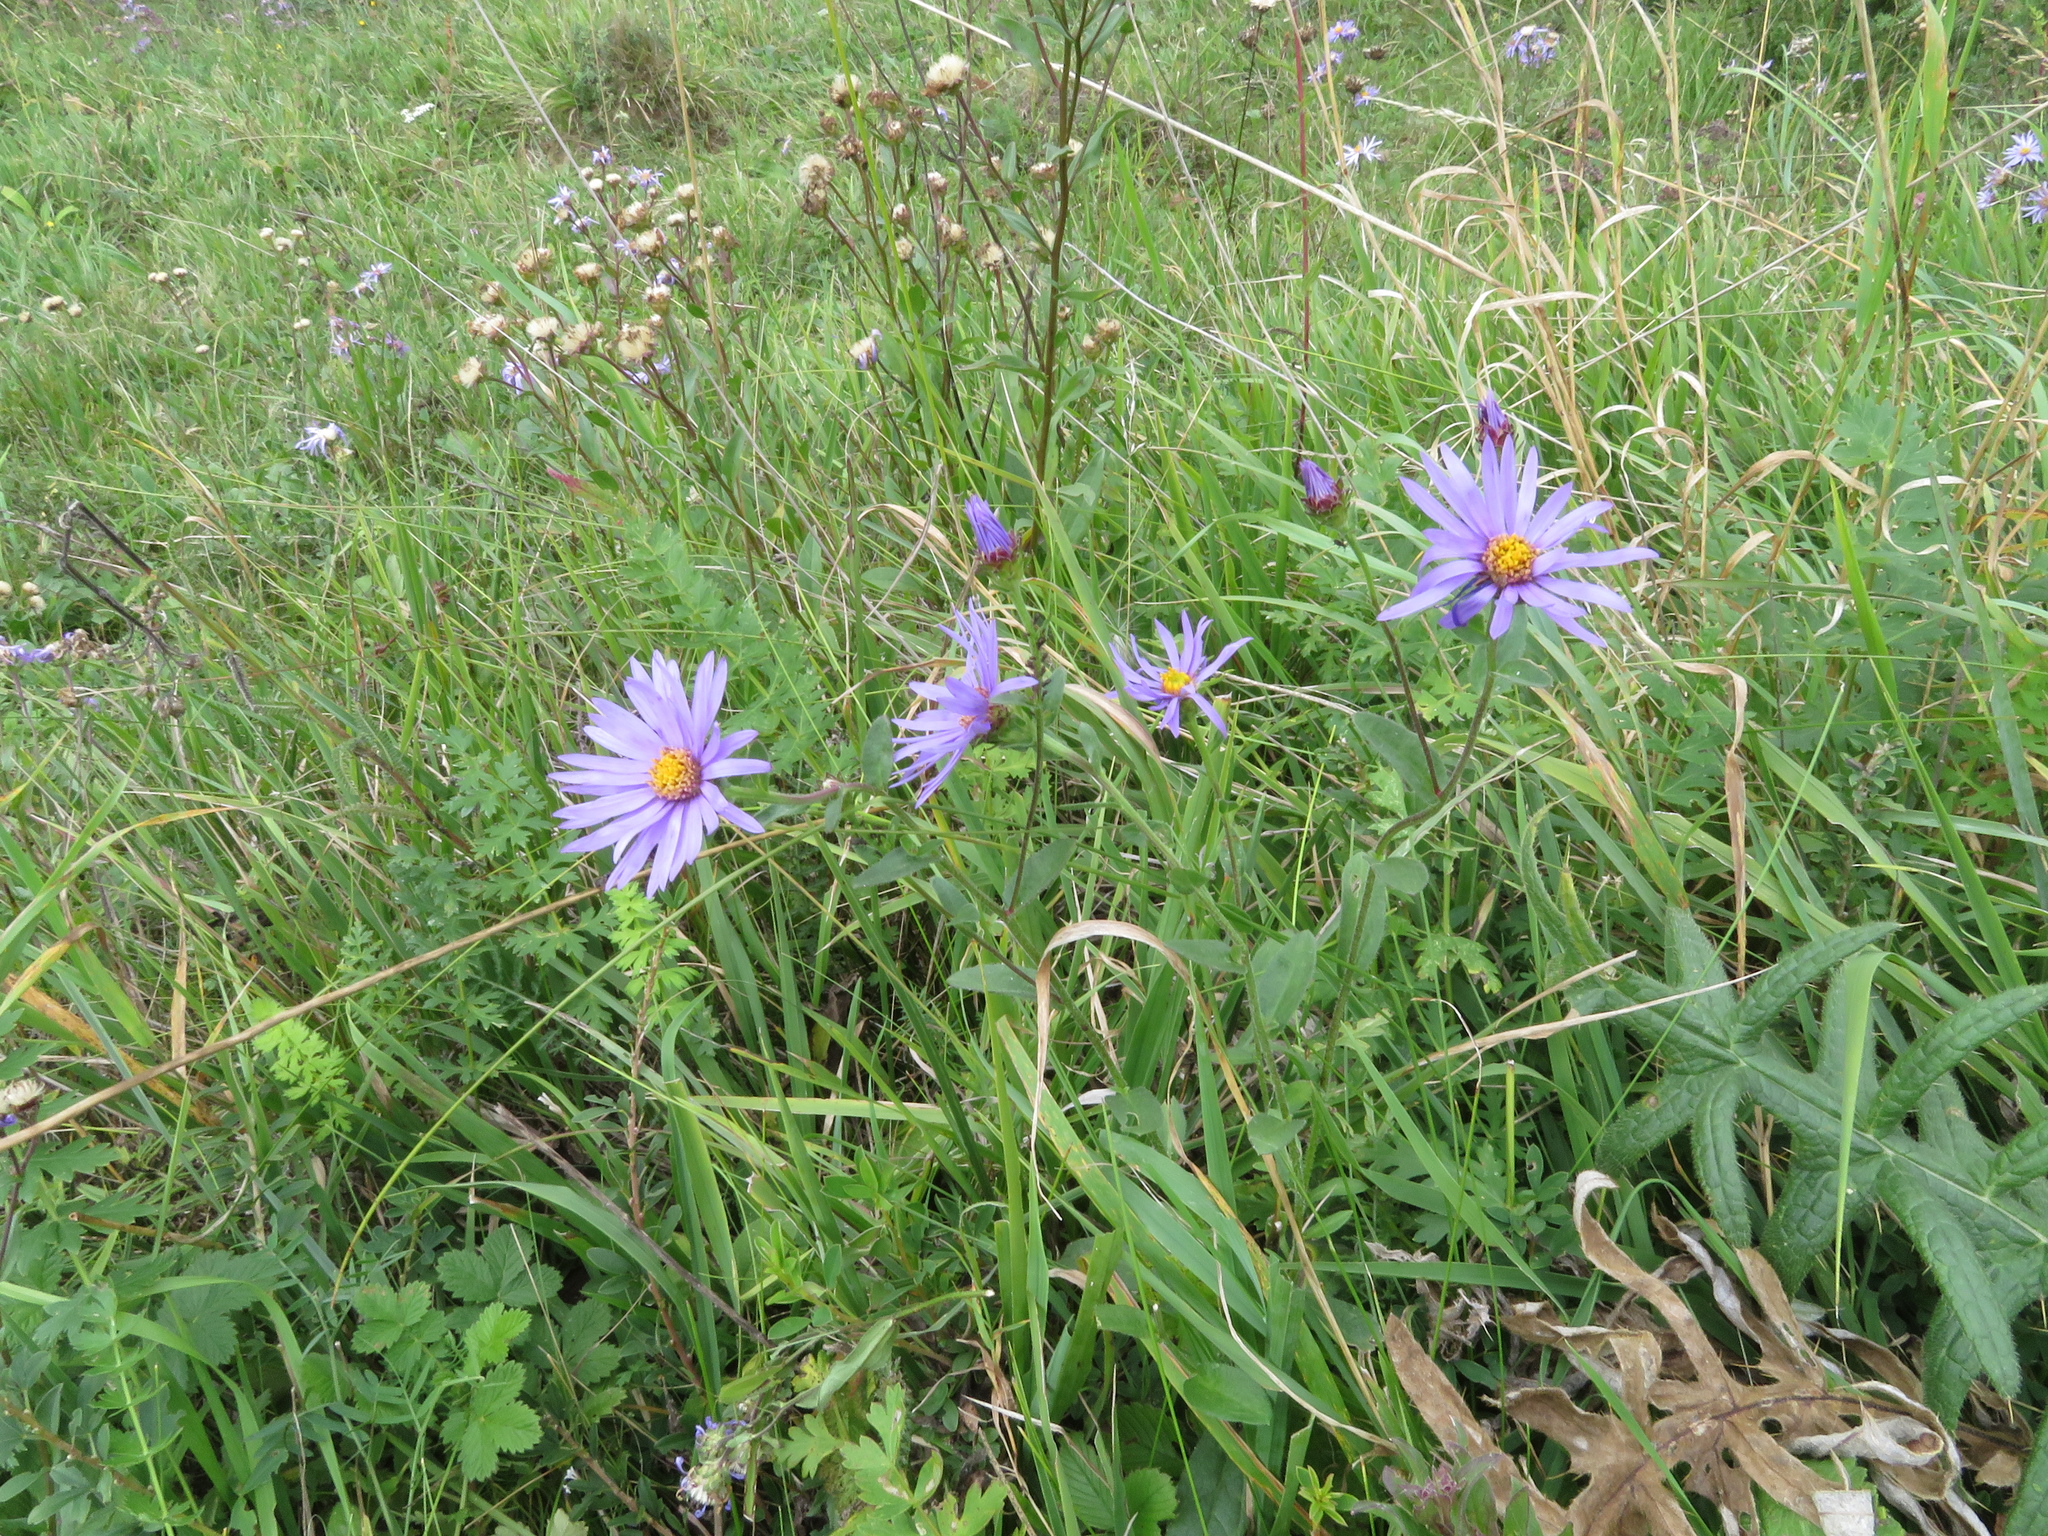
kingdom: Plantae
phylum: Tracheophyta
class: Magnoliopsida
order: Asterales
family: Asteraceae
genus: Aster
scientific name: Aster amellus
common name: European michaelmas daisy
